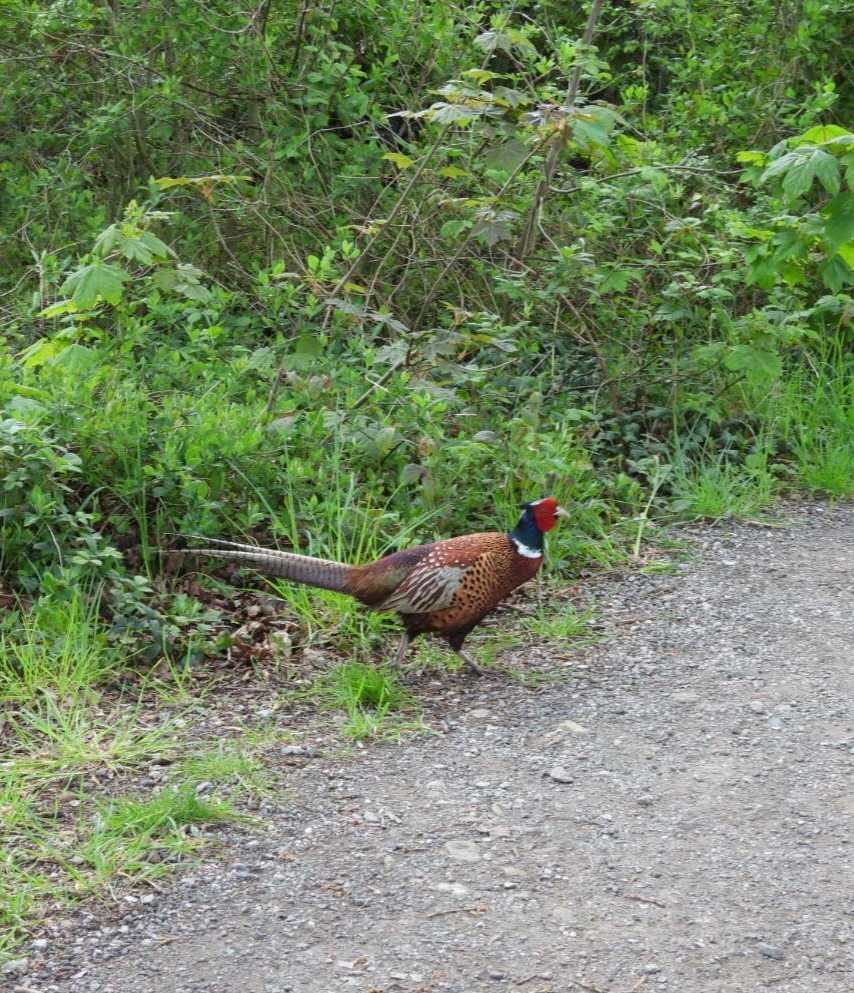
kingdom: Animalia
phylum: Chordata
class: Aves
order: Galliformes
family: Phasianidae
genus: Phasianus
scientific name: Phasianus colchicus
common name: Common pheasant
